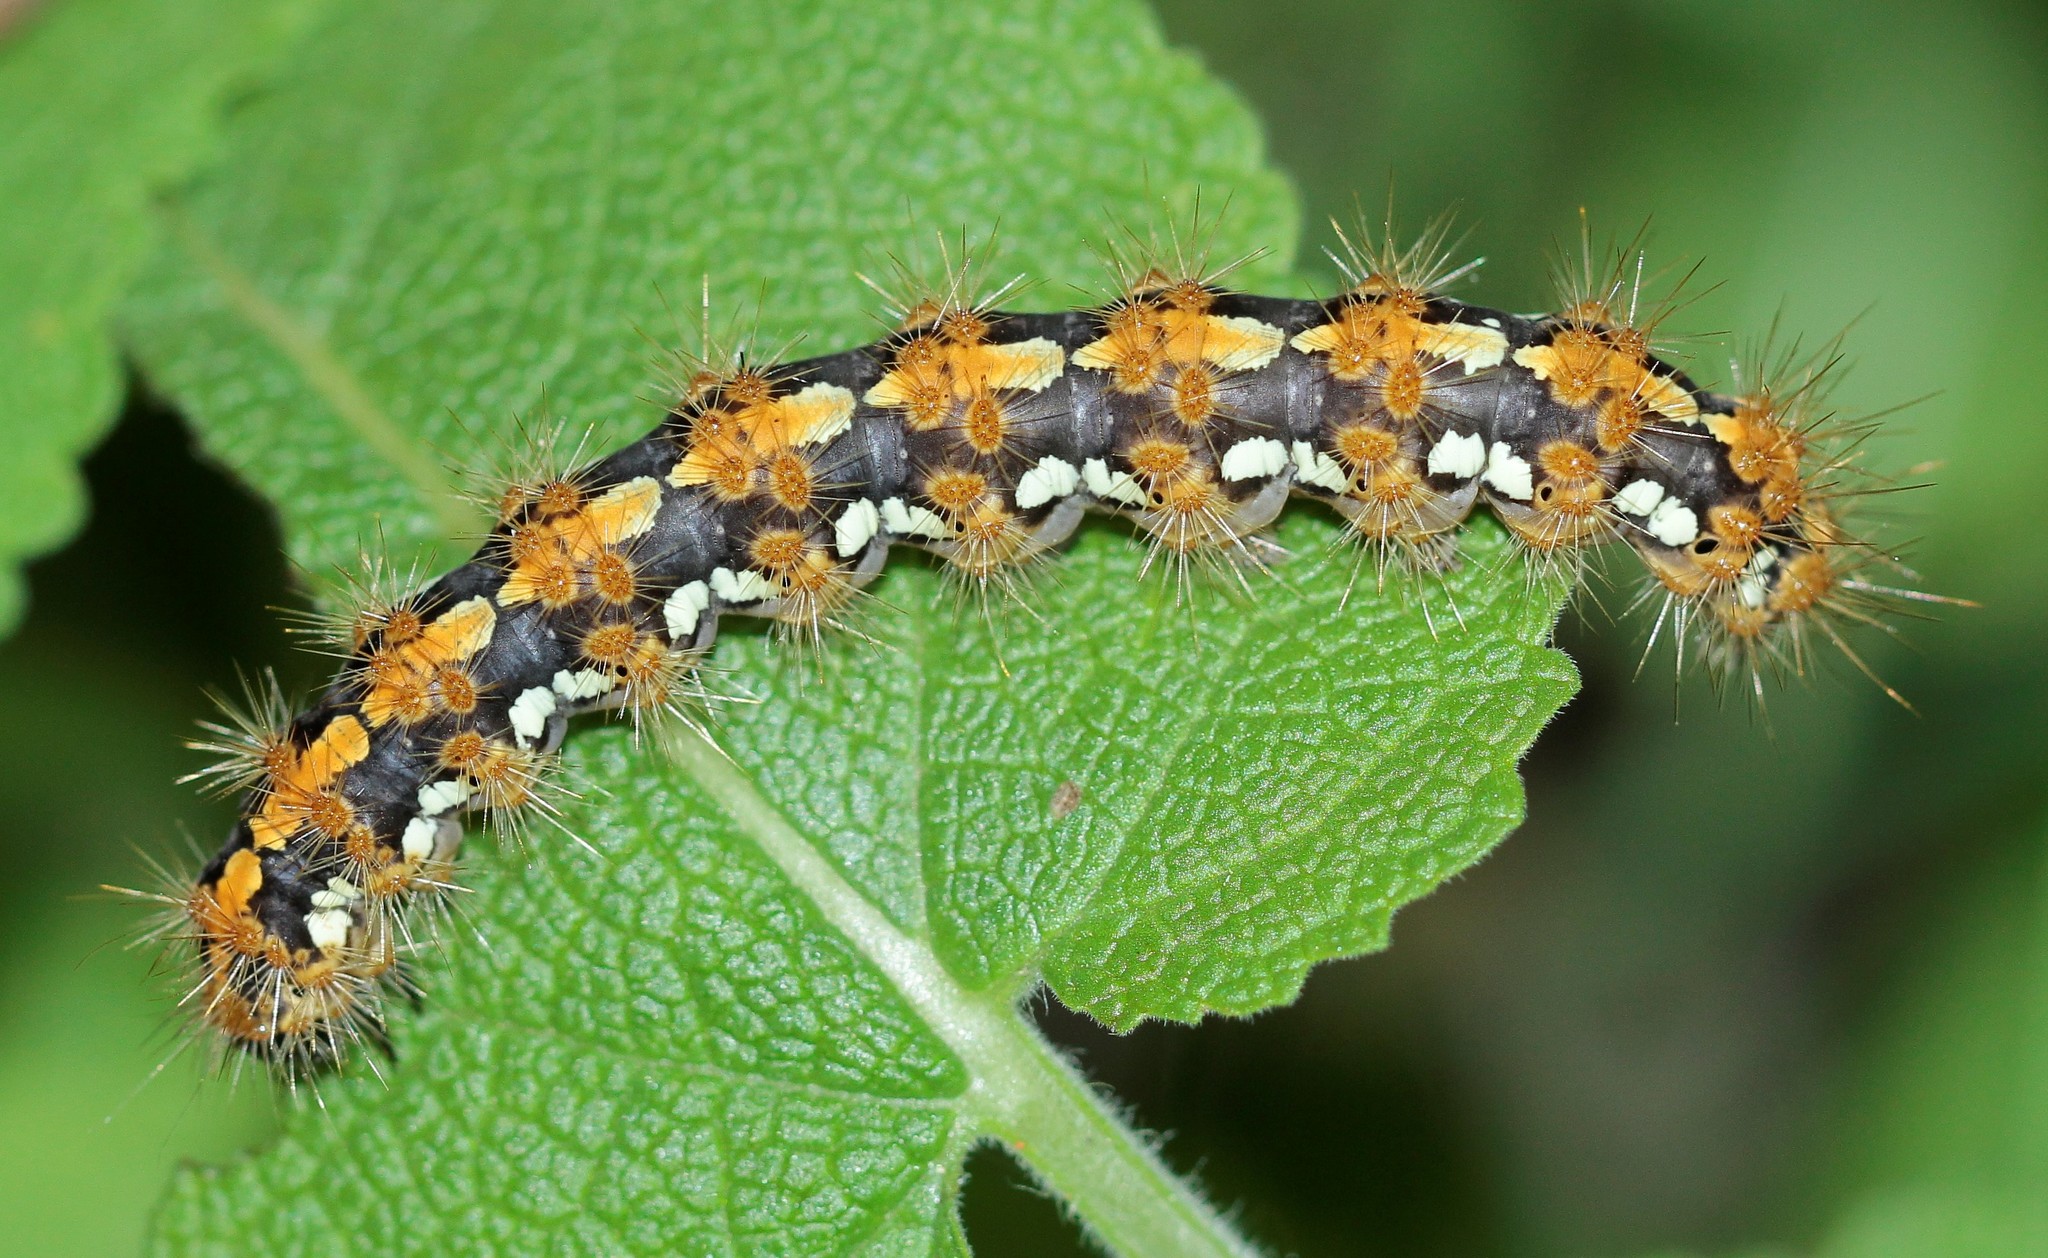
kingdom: Animalia
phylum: Arthropoda
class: Insecta
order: Lepidoptera
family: Erebidae
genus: Euplagia
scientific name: Euplagia quadripunctaria
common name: Jersey tiger
